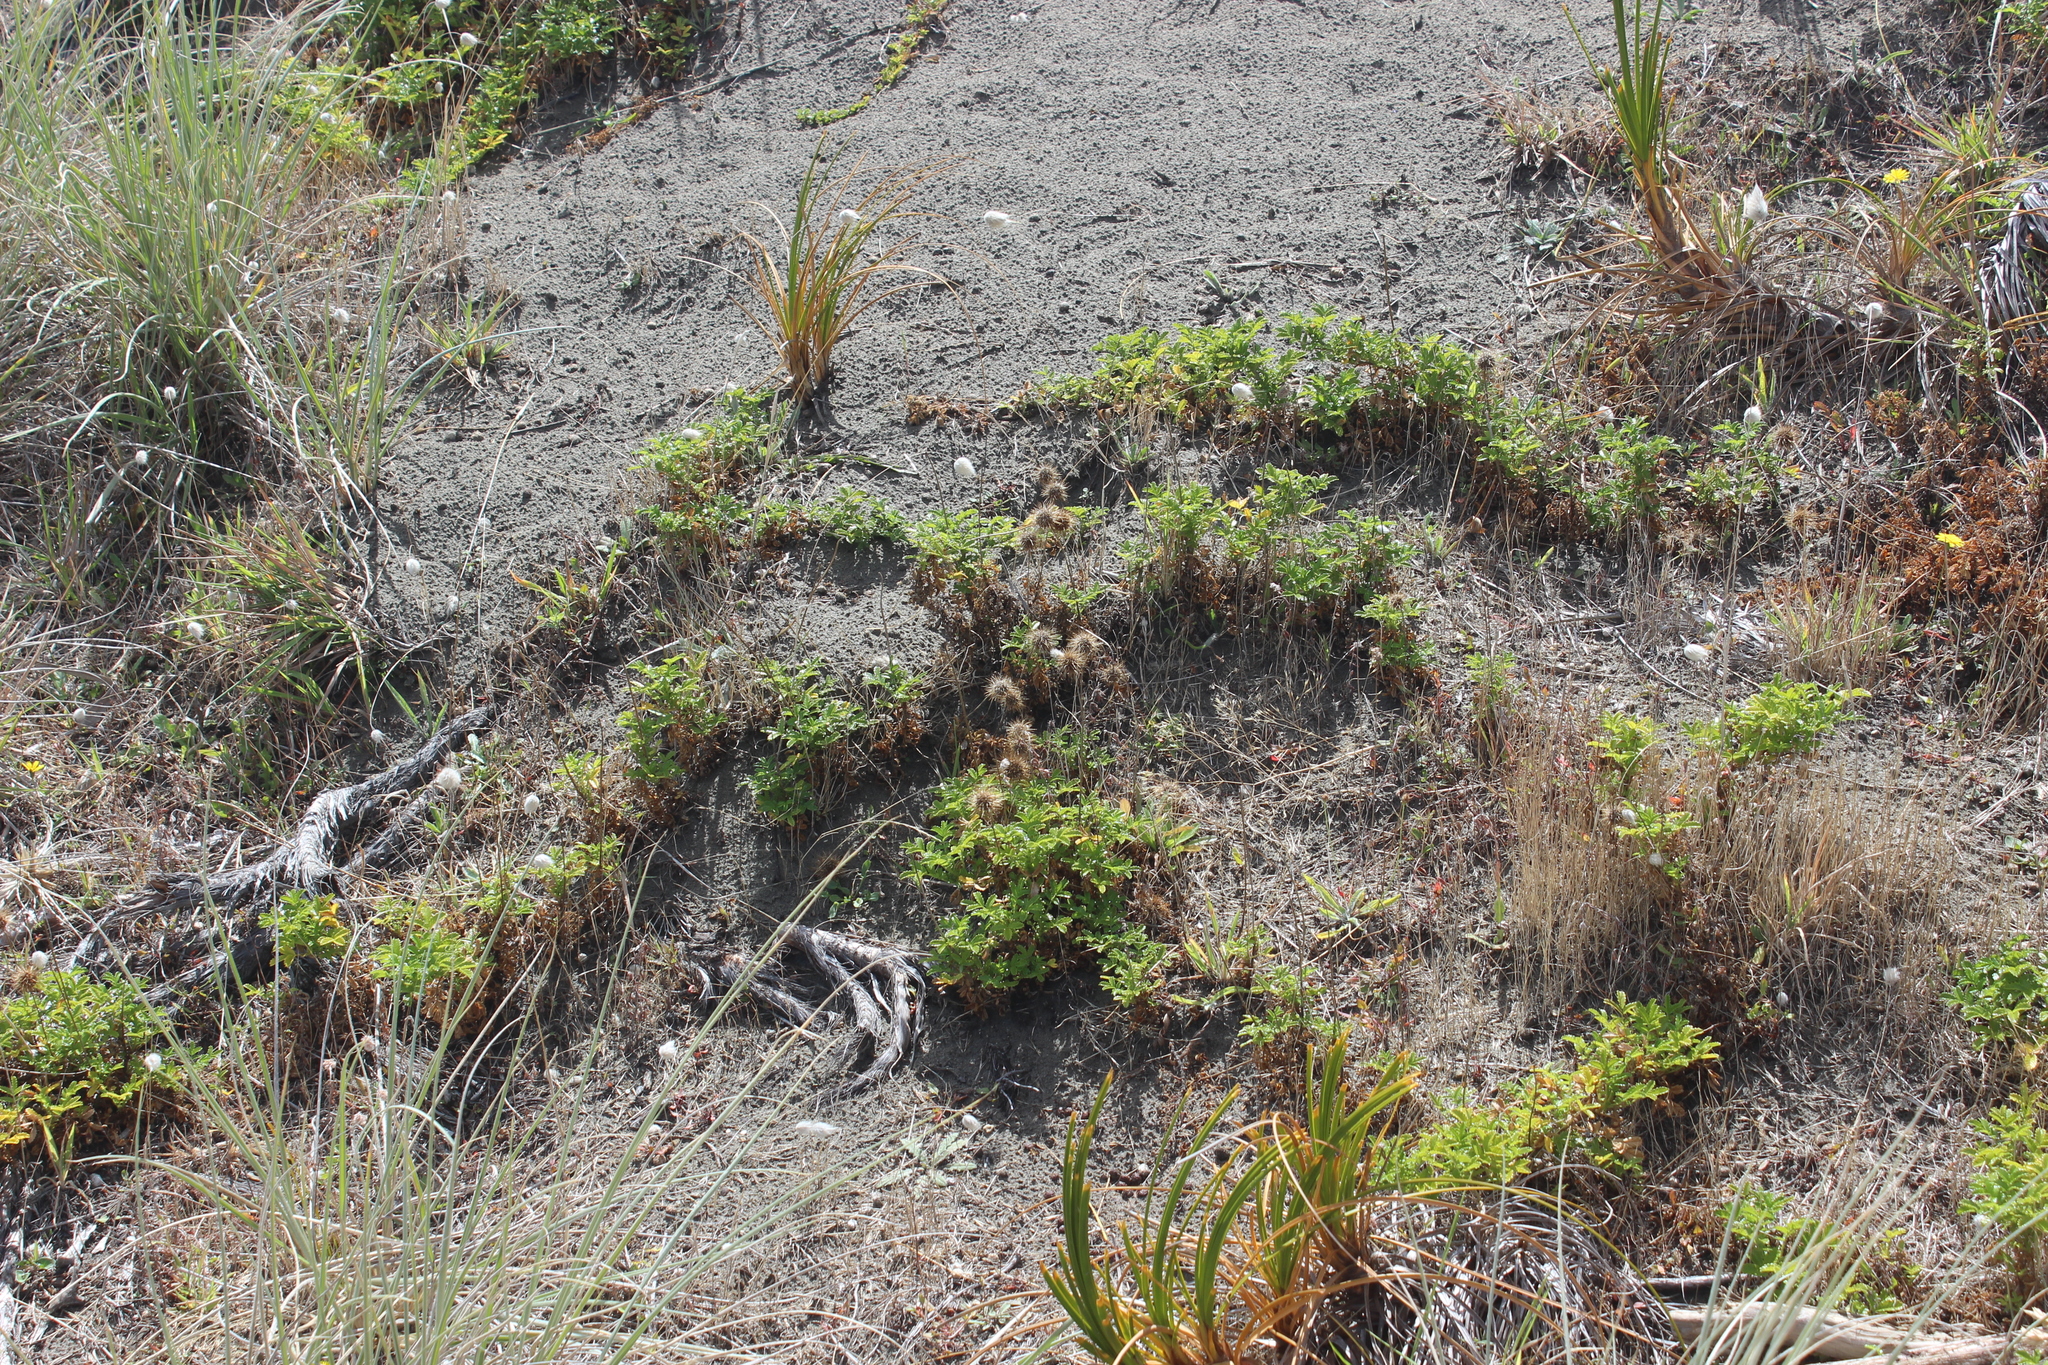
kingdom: Plantae
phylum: Tracheophyta
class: Magnoliopsida
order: Rosales
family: Rosaceae
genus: Acaena
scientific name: Acaena pallida
